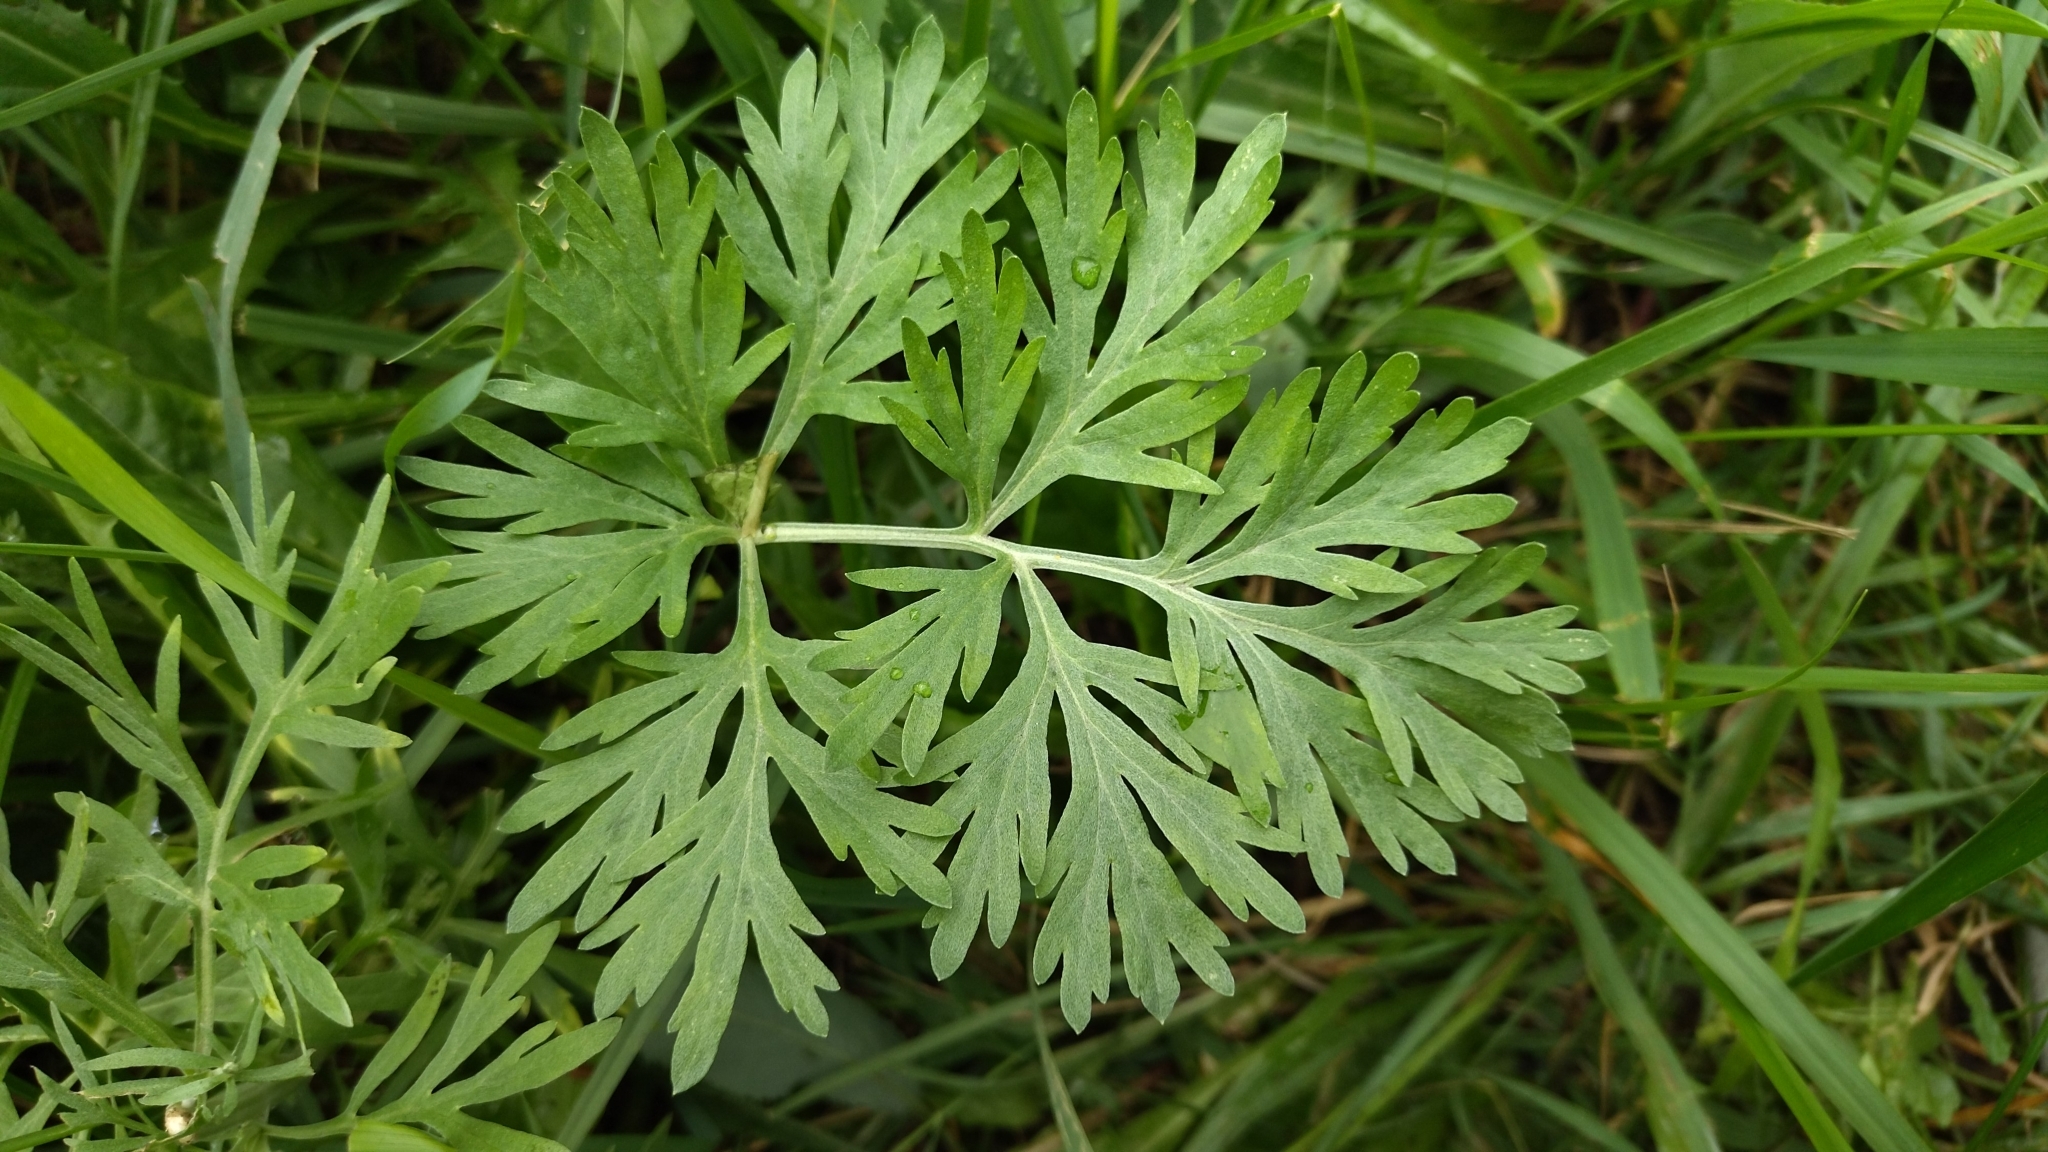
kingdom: Plantae
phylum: Tracheophyta
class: Magnoliopsida
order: Asterales
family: Asteraceae
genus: Artemisia
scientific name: Artemisia absinthium
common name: Wormwood
